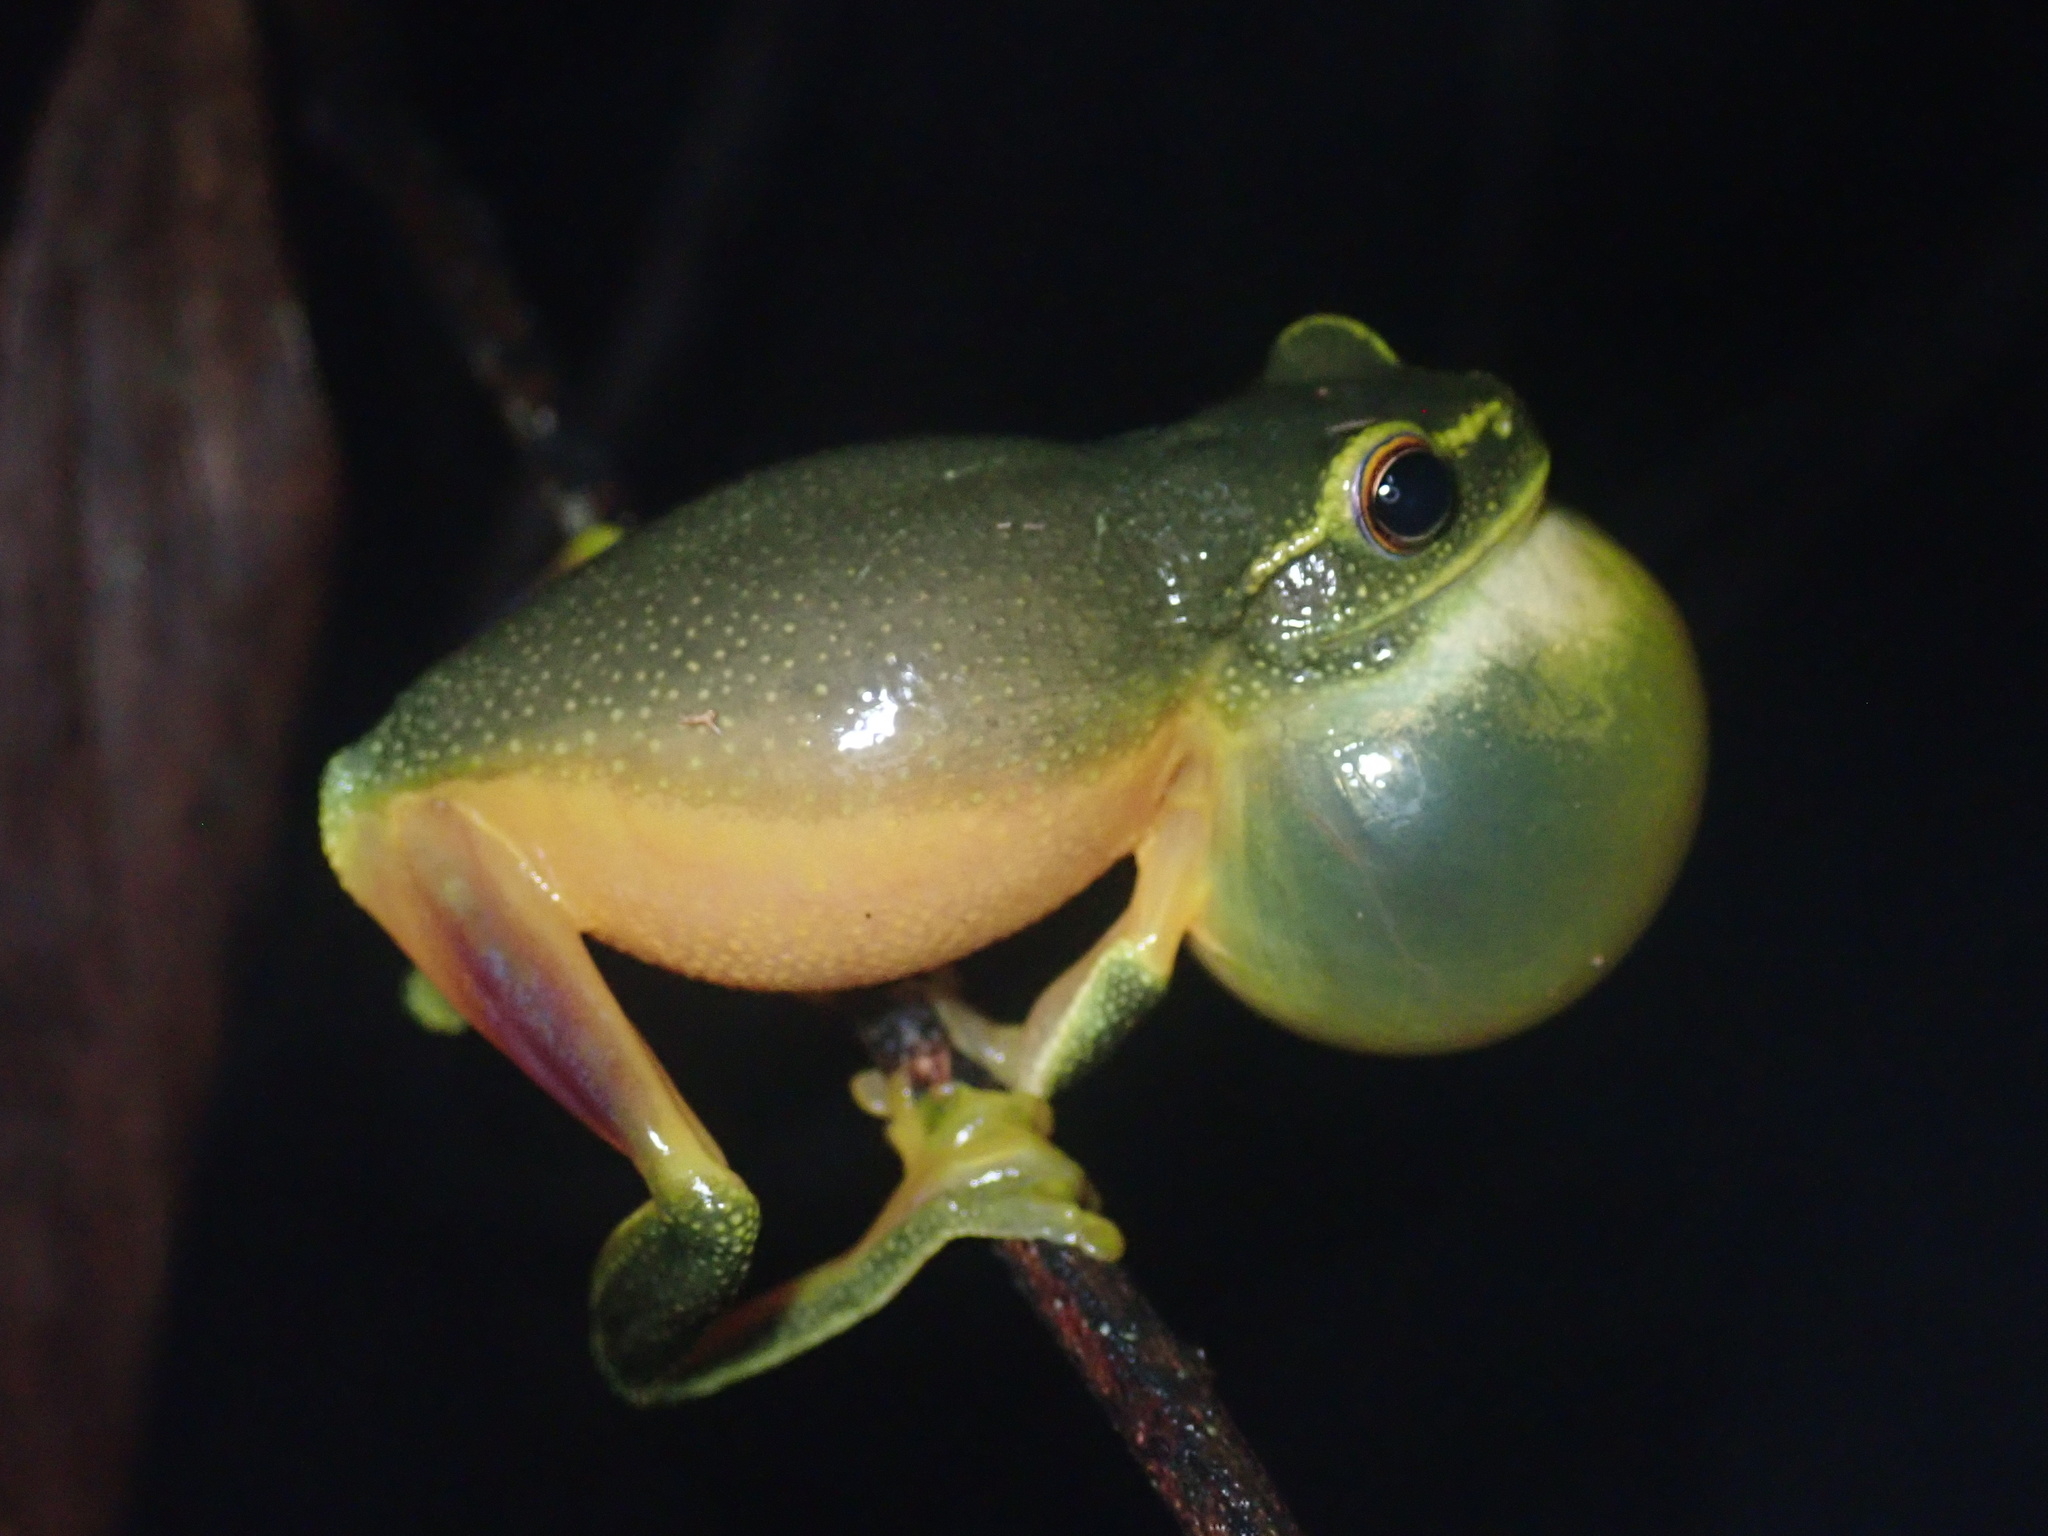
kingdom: Animalia
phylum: Chordata
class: Amphibia
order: Anura
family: Pelodryadidae
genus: Ranoidea
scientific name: Ranoidea gracilenta
